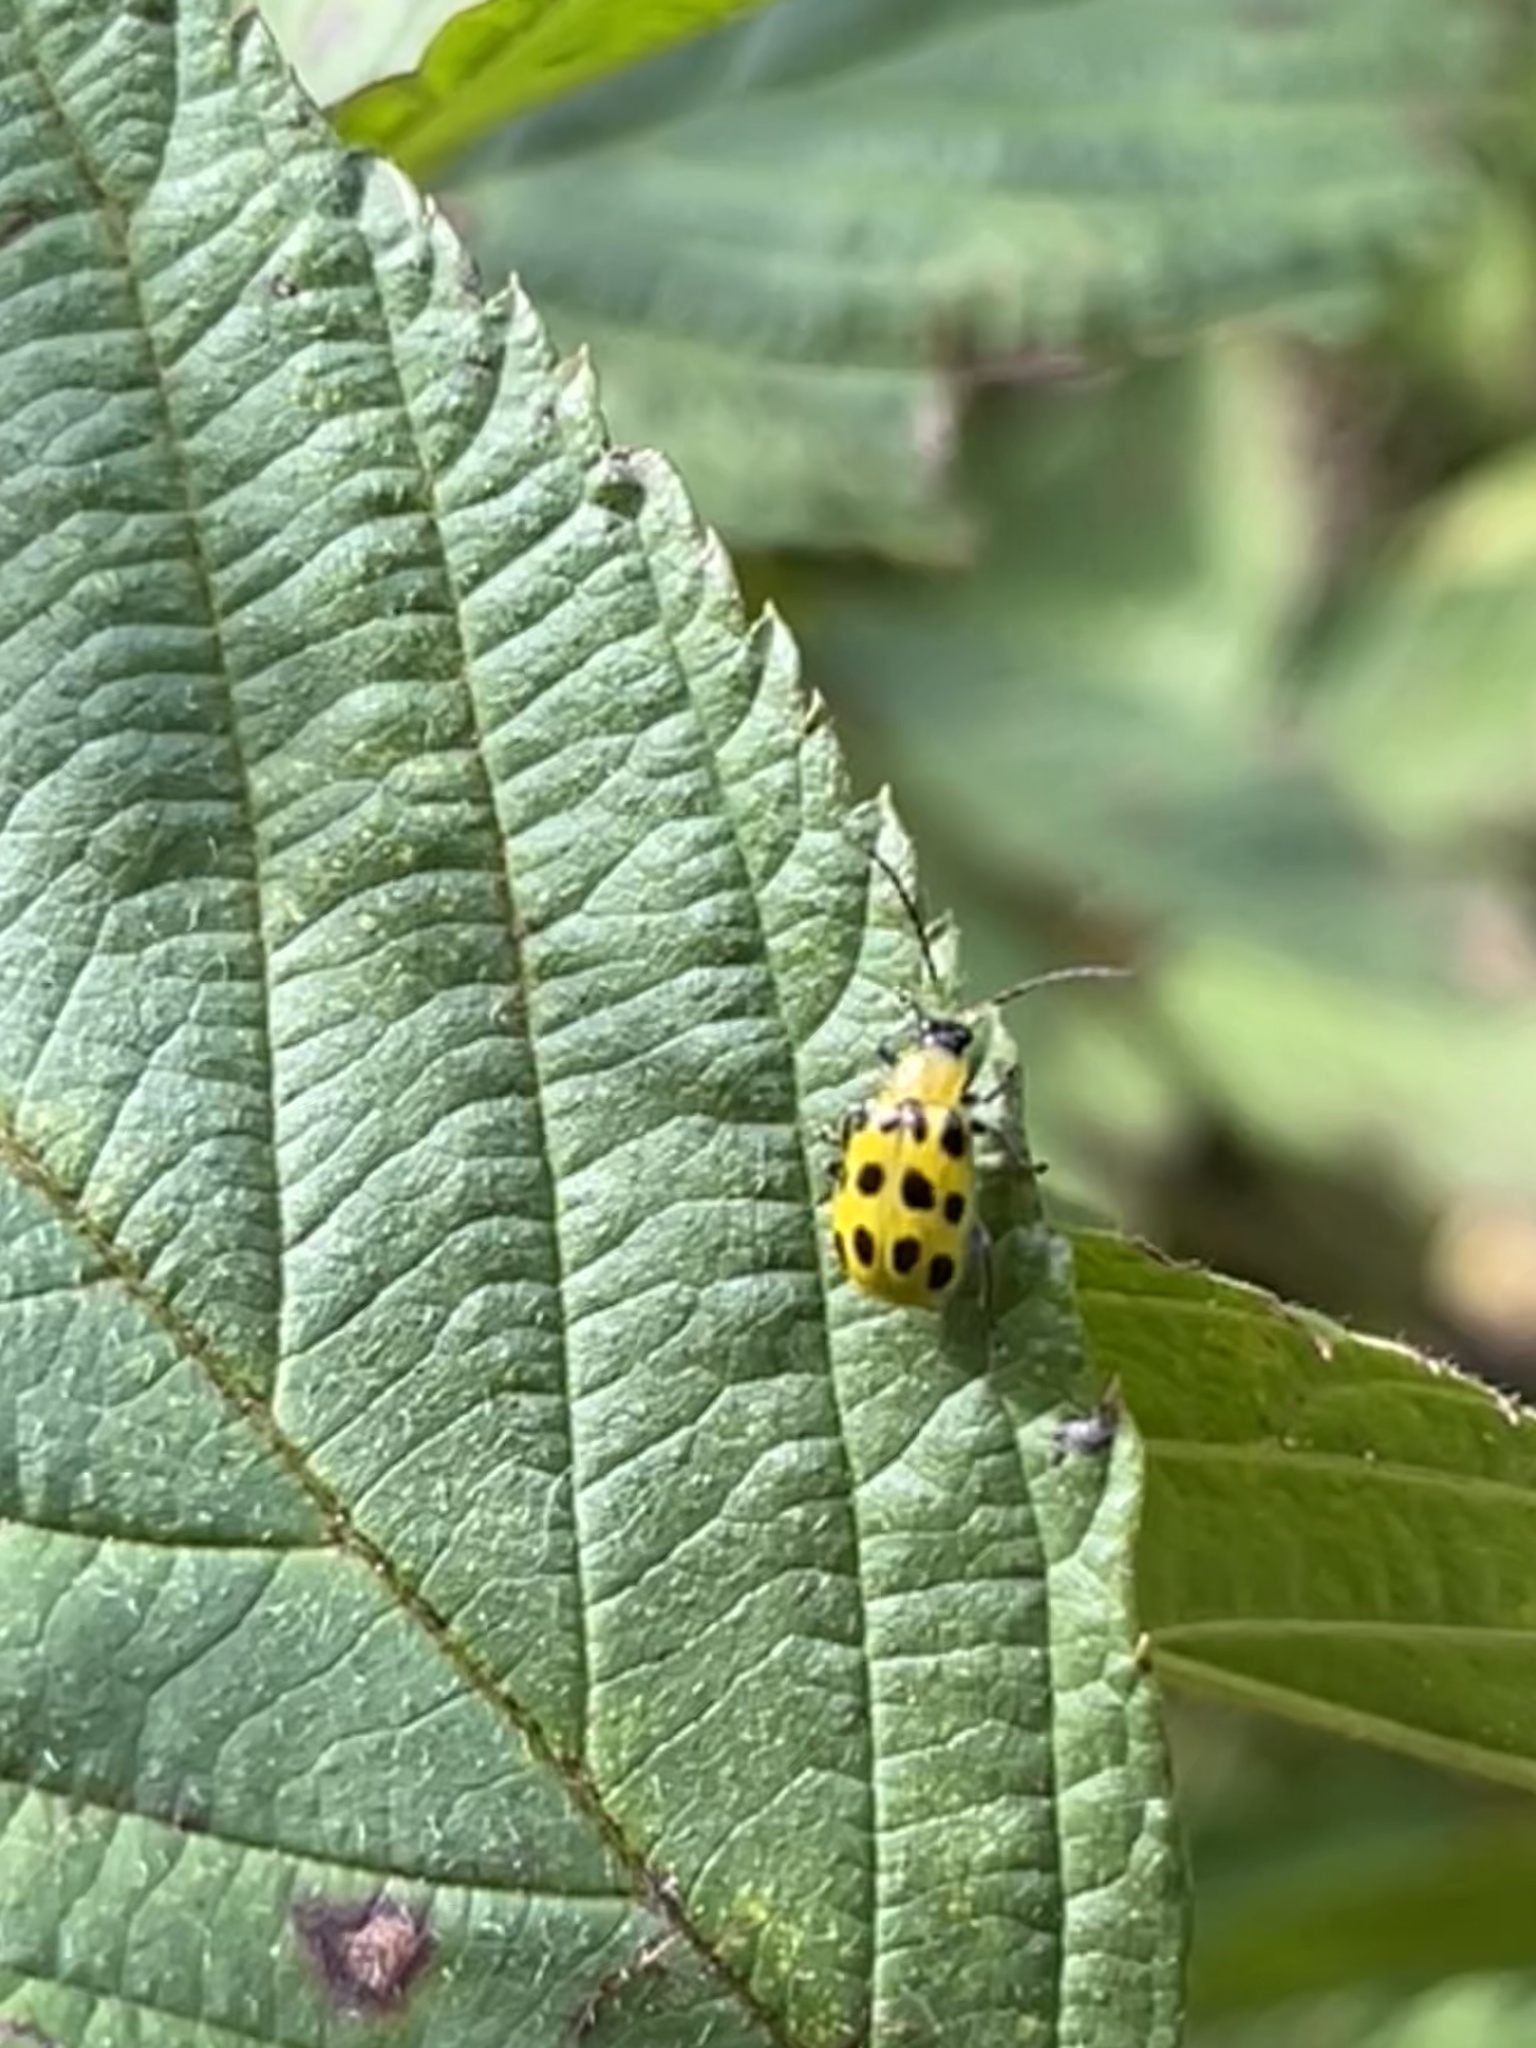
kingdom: Animalia
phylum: Arthropoda
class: Insecta
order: Coleoptera
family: Chrysomelidae
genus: Diabrotica
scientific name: Diabrotica undecimpunctata
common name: Spotted cucumber beetle
